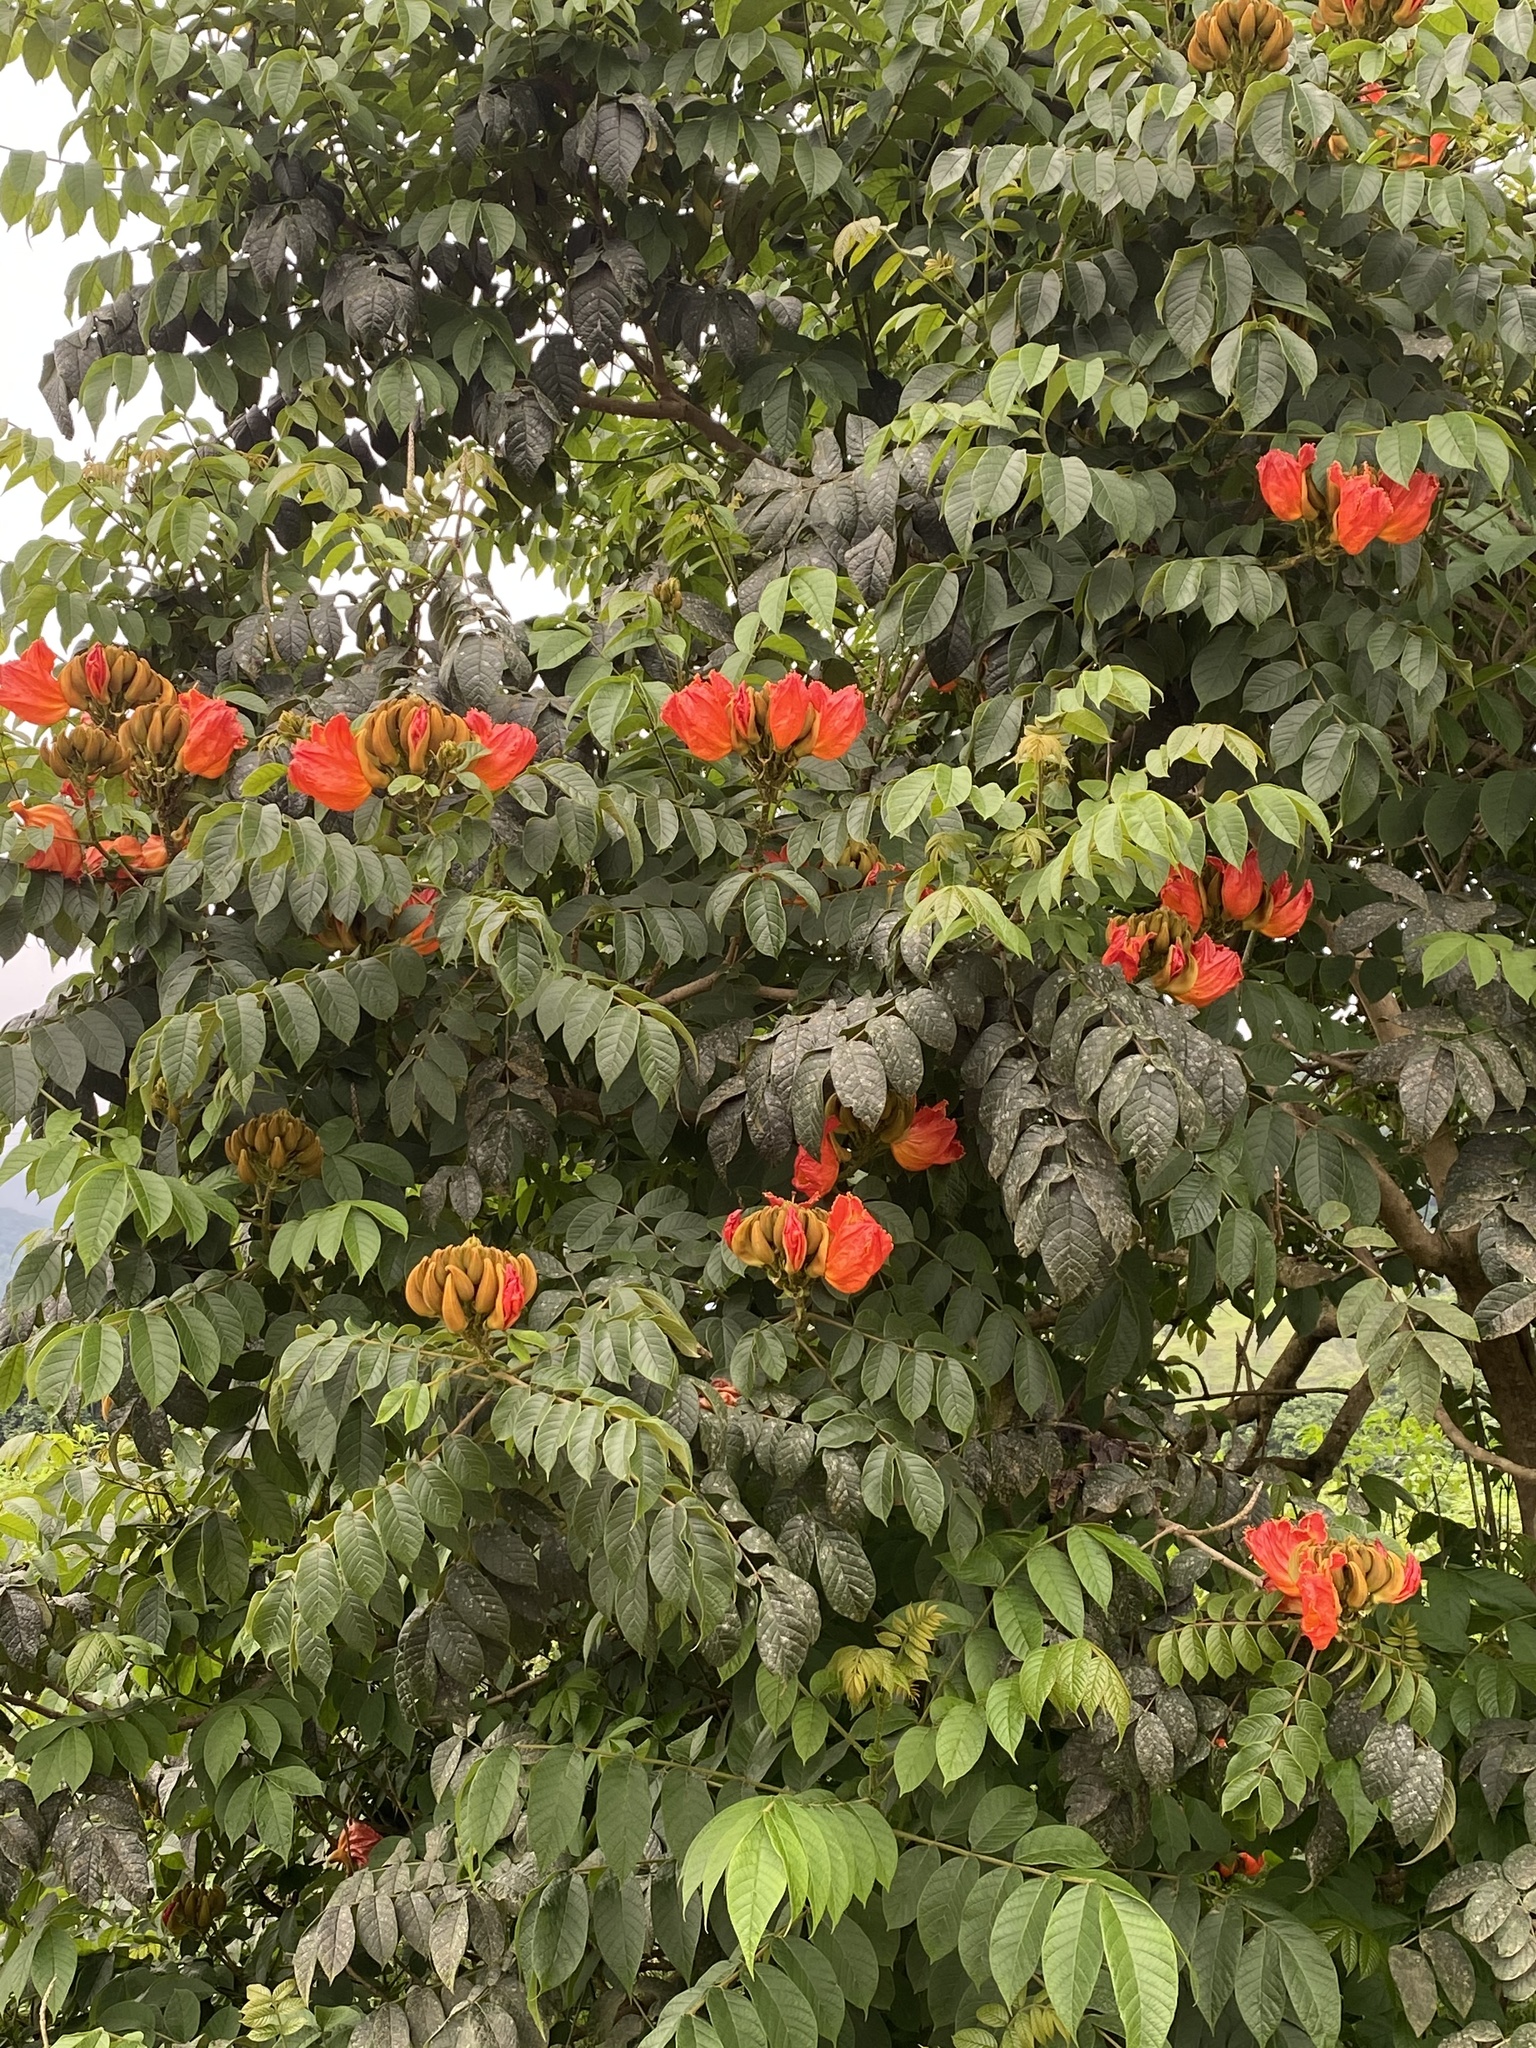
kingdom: Plantae
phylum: Tracheophyta
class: Magnoliopsida
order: Lamiales
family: Bignoniaceae
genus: Spathodea
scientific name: Spathodea campanulata
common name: African tuliptree
